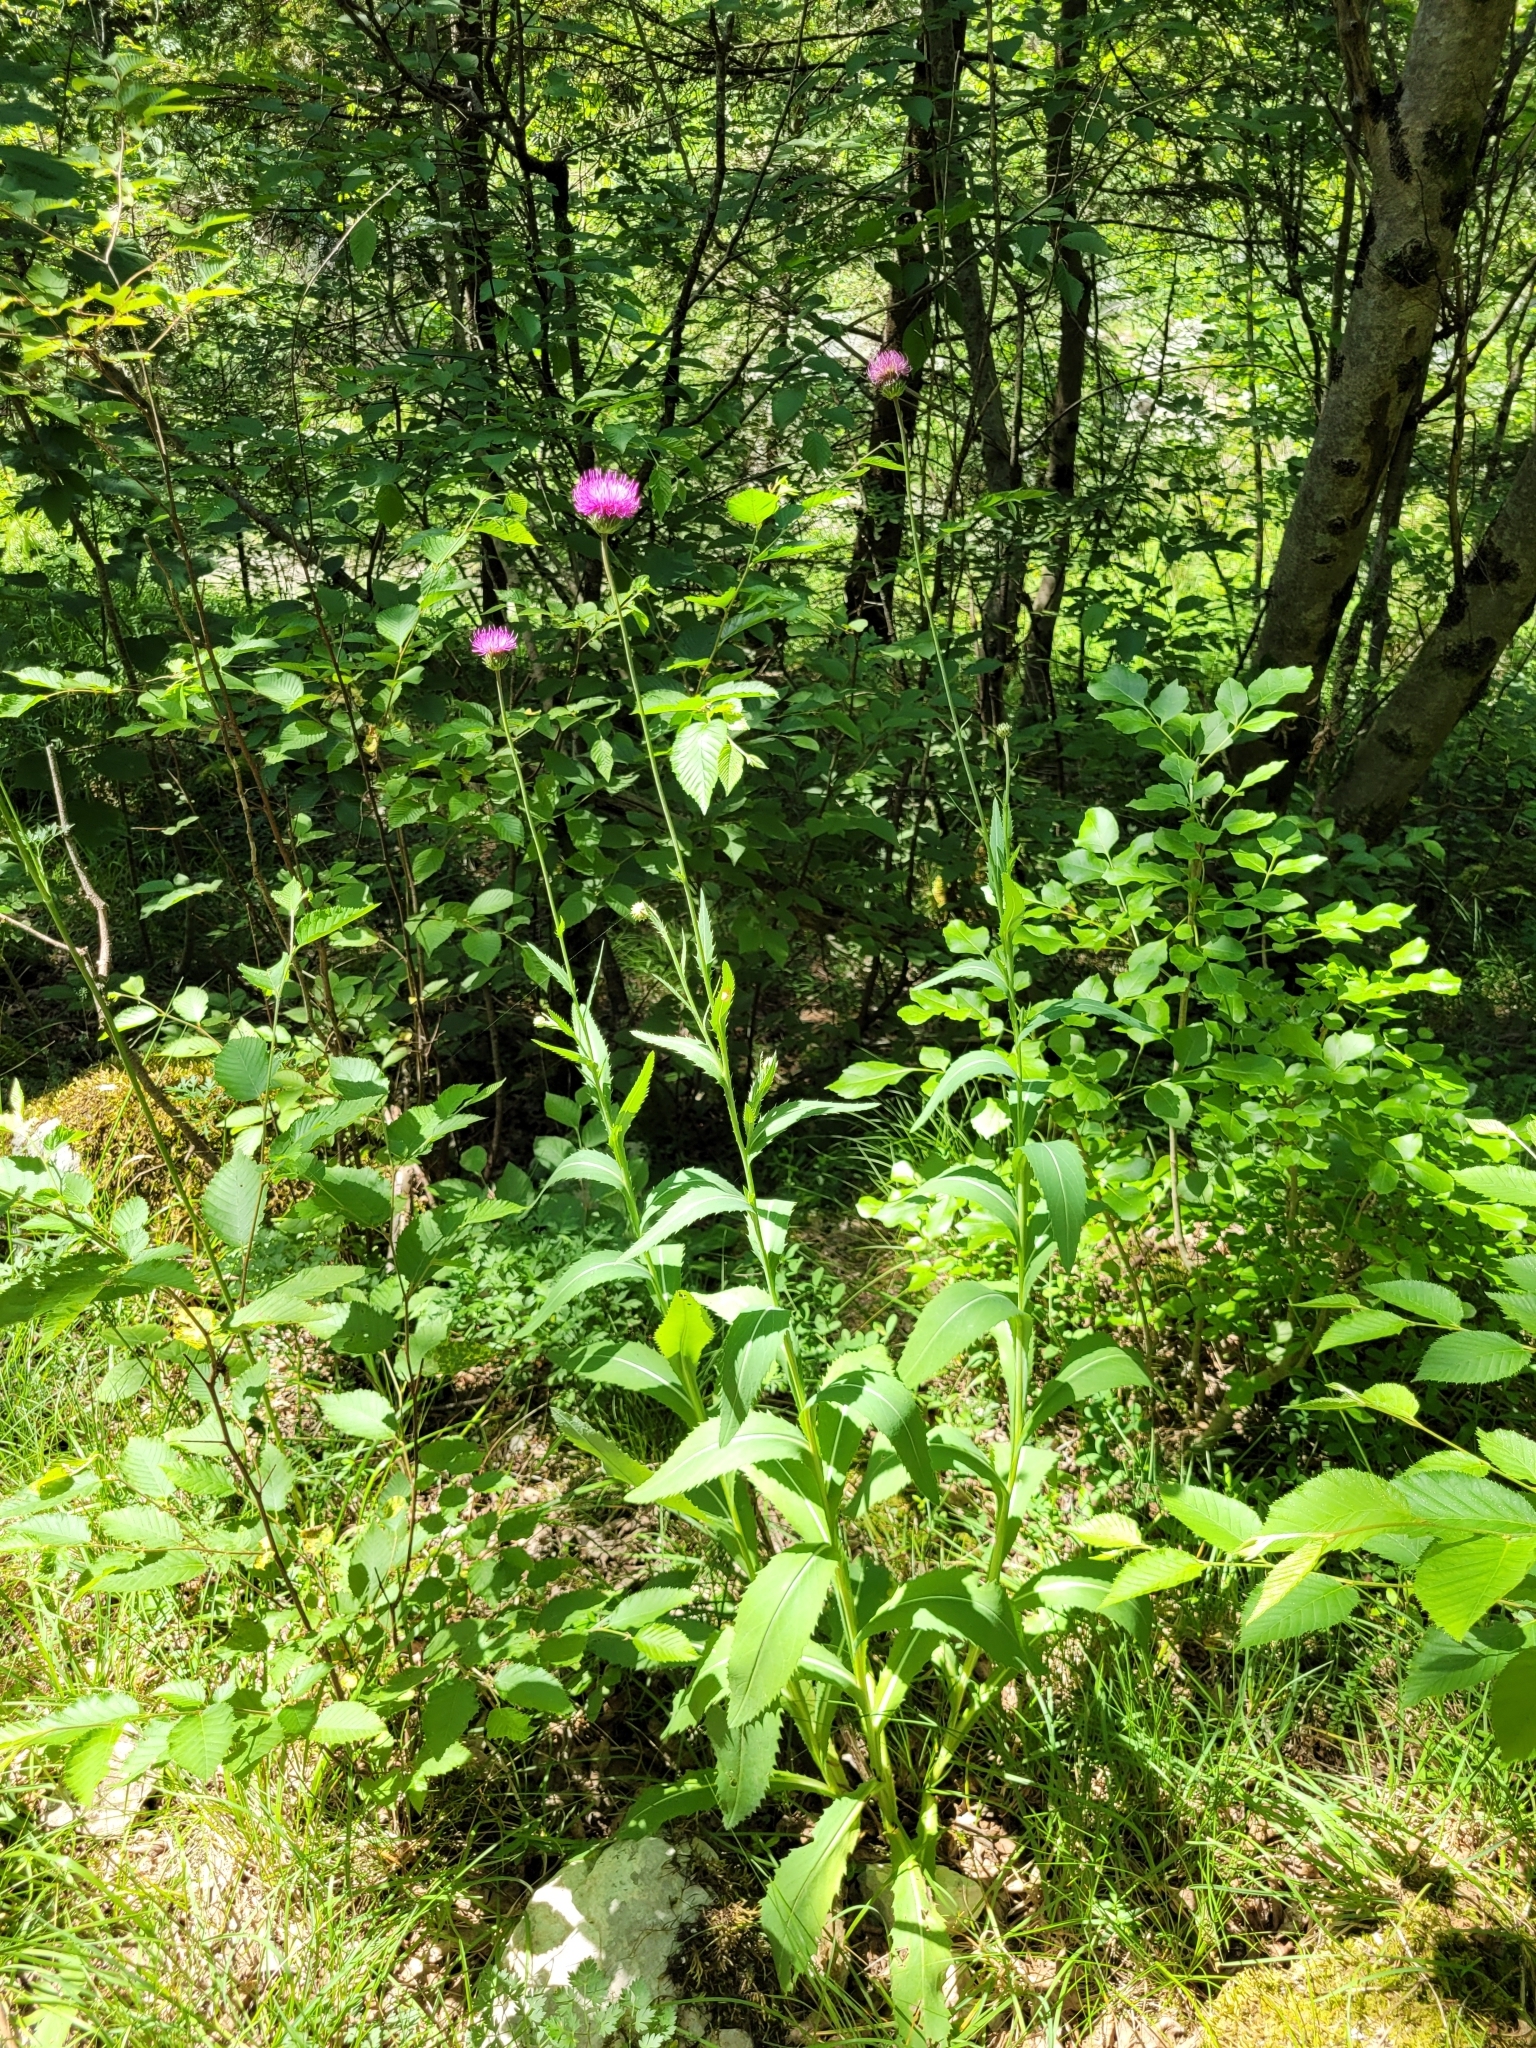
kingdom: Plantae
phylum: Tracheophyta
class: Magnoliopsida
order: Asterales
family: Asteraceae
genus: Carduus
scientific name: Carduus defloratus
